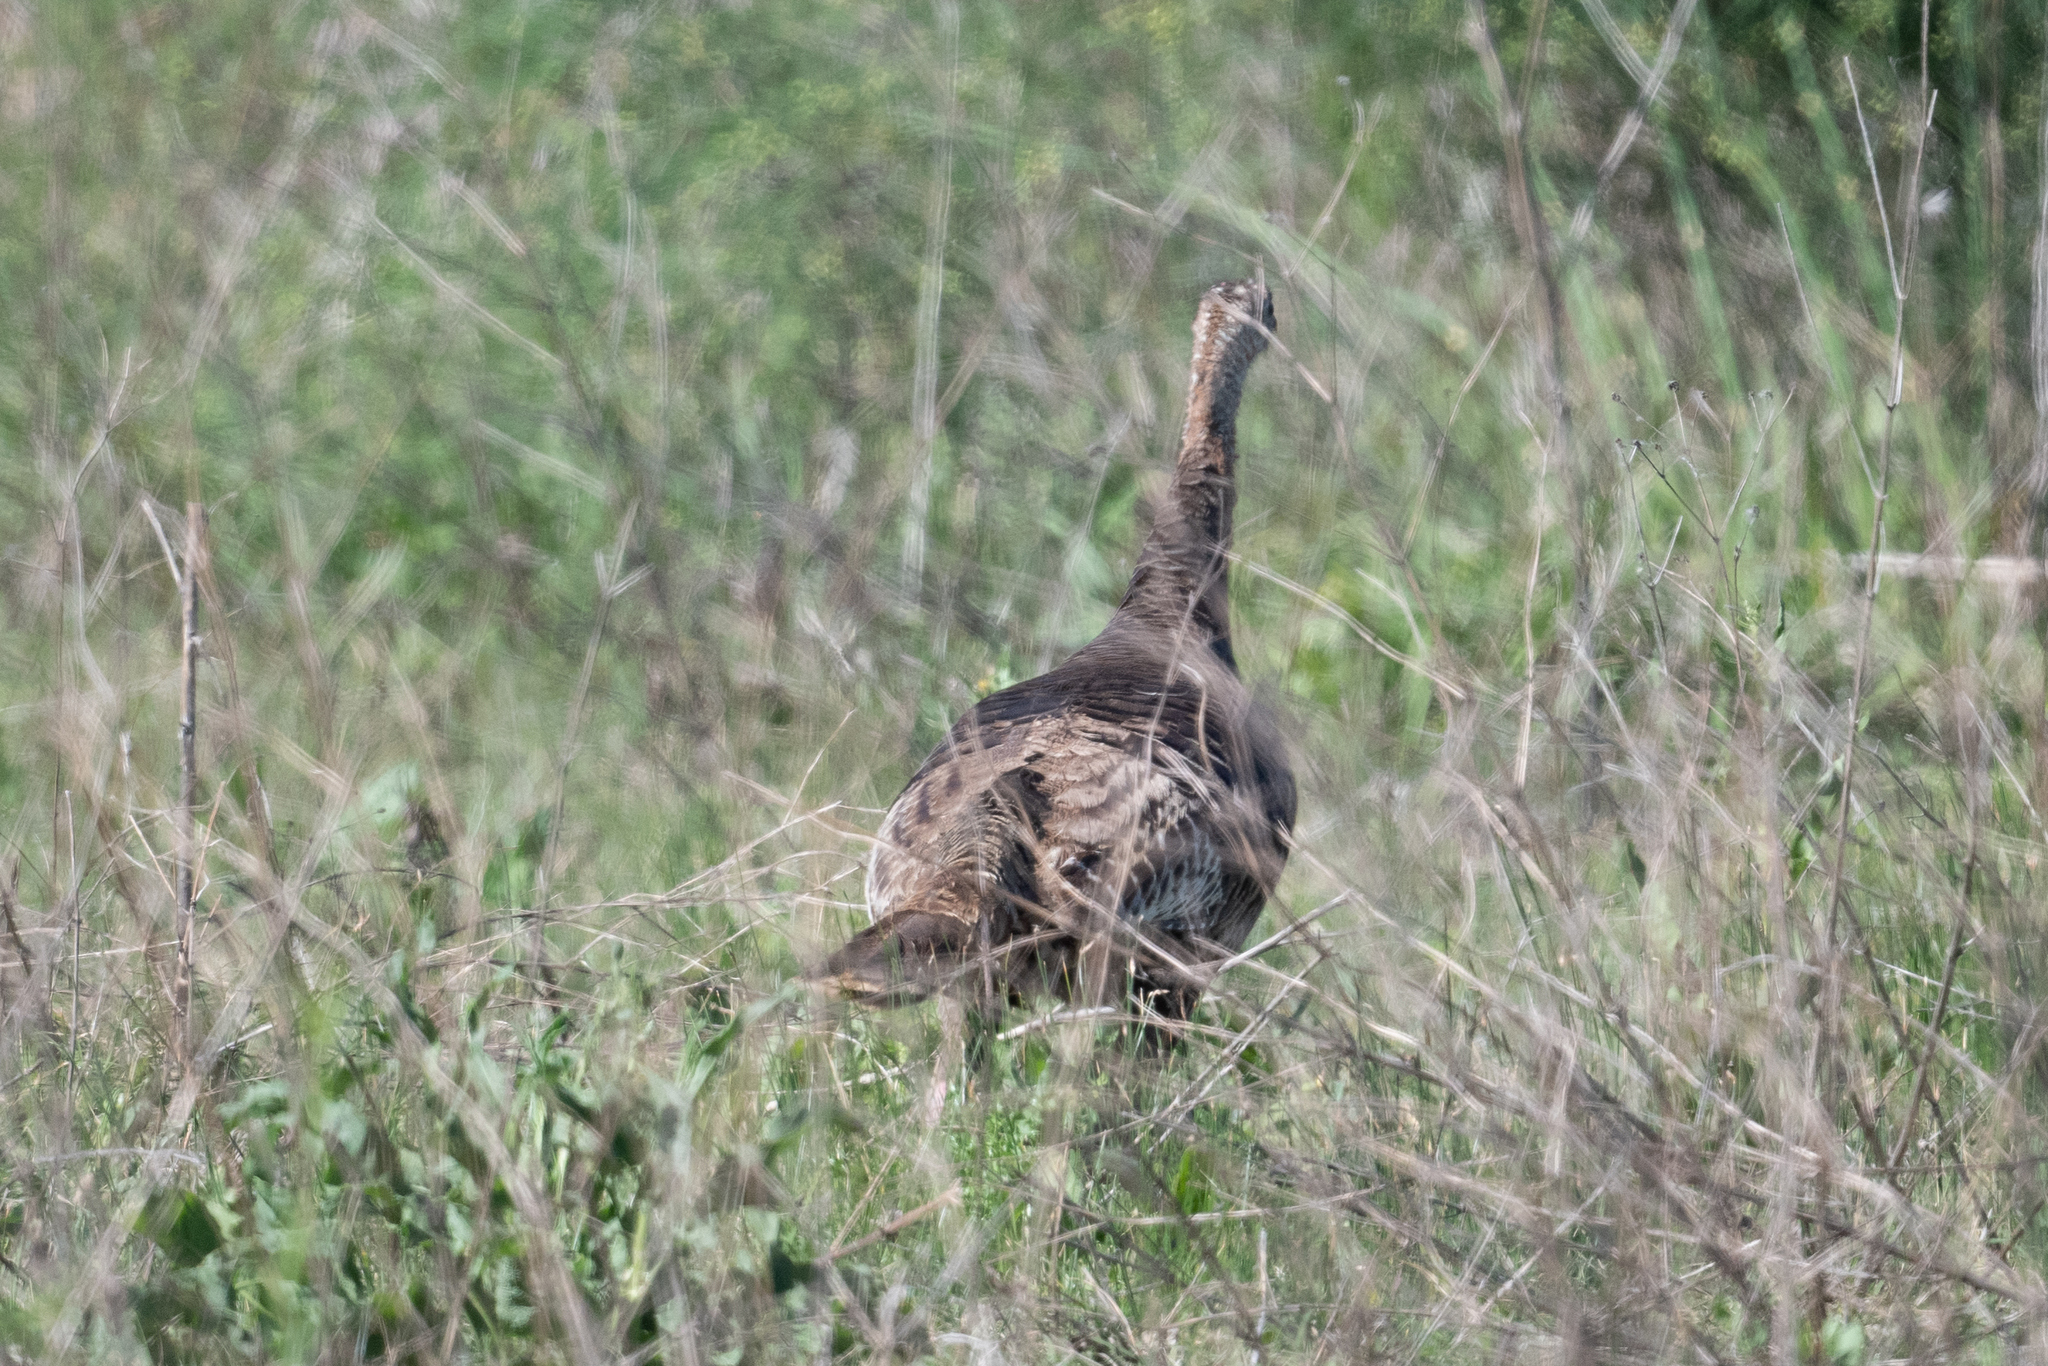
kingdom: Animalia
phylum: Chordata
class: Aves
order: Galliformes
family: Phasianidae
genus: Meleagris
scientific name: Meleagris gallopavo
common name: Wild turkey
